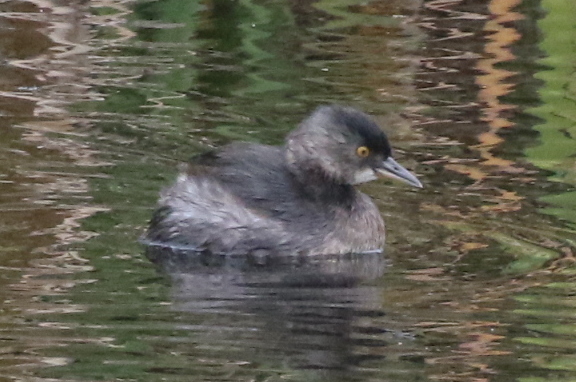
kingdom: Animalia
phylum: Chordata
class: Aves
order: Podicipediformes
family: Podicipedidae
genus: Tachybaptus
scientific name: Tachybaptus dominicus
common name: Least grebe
